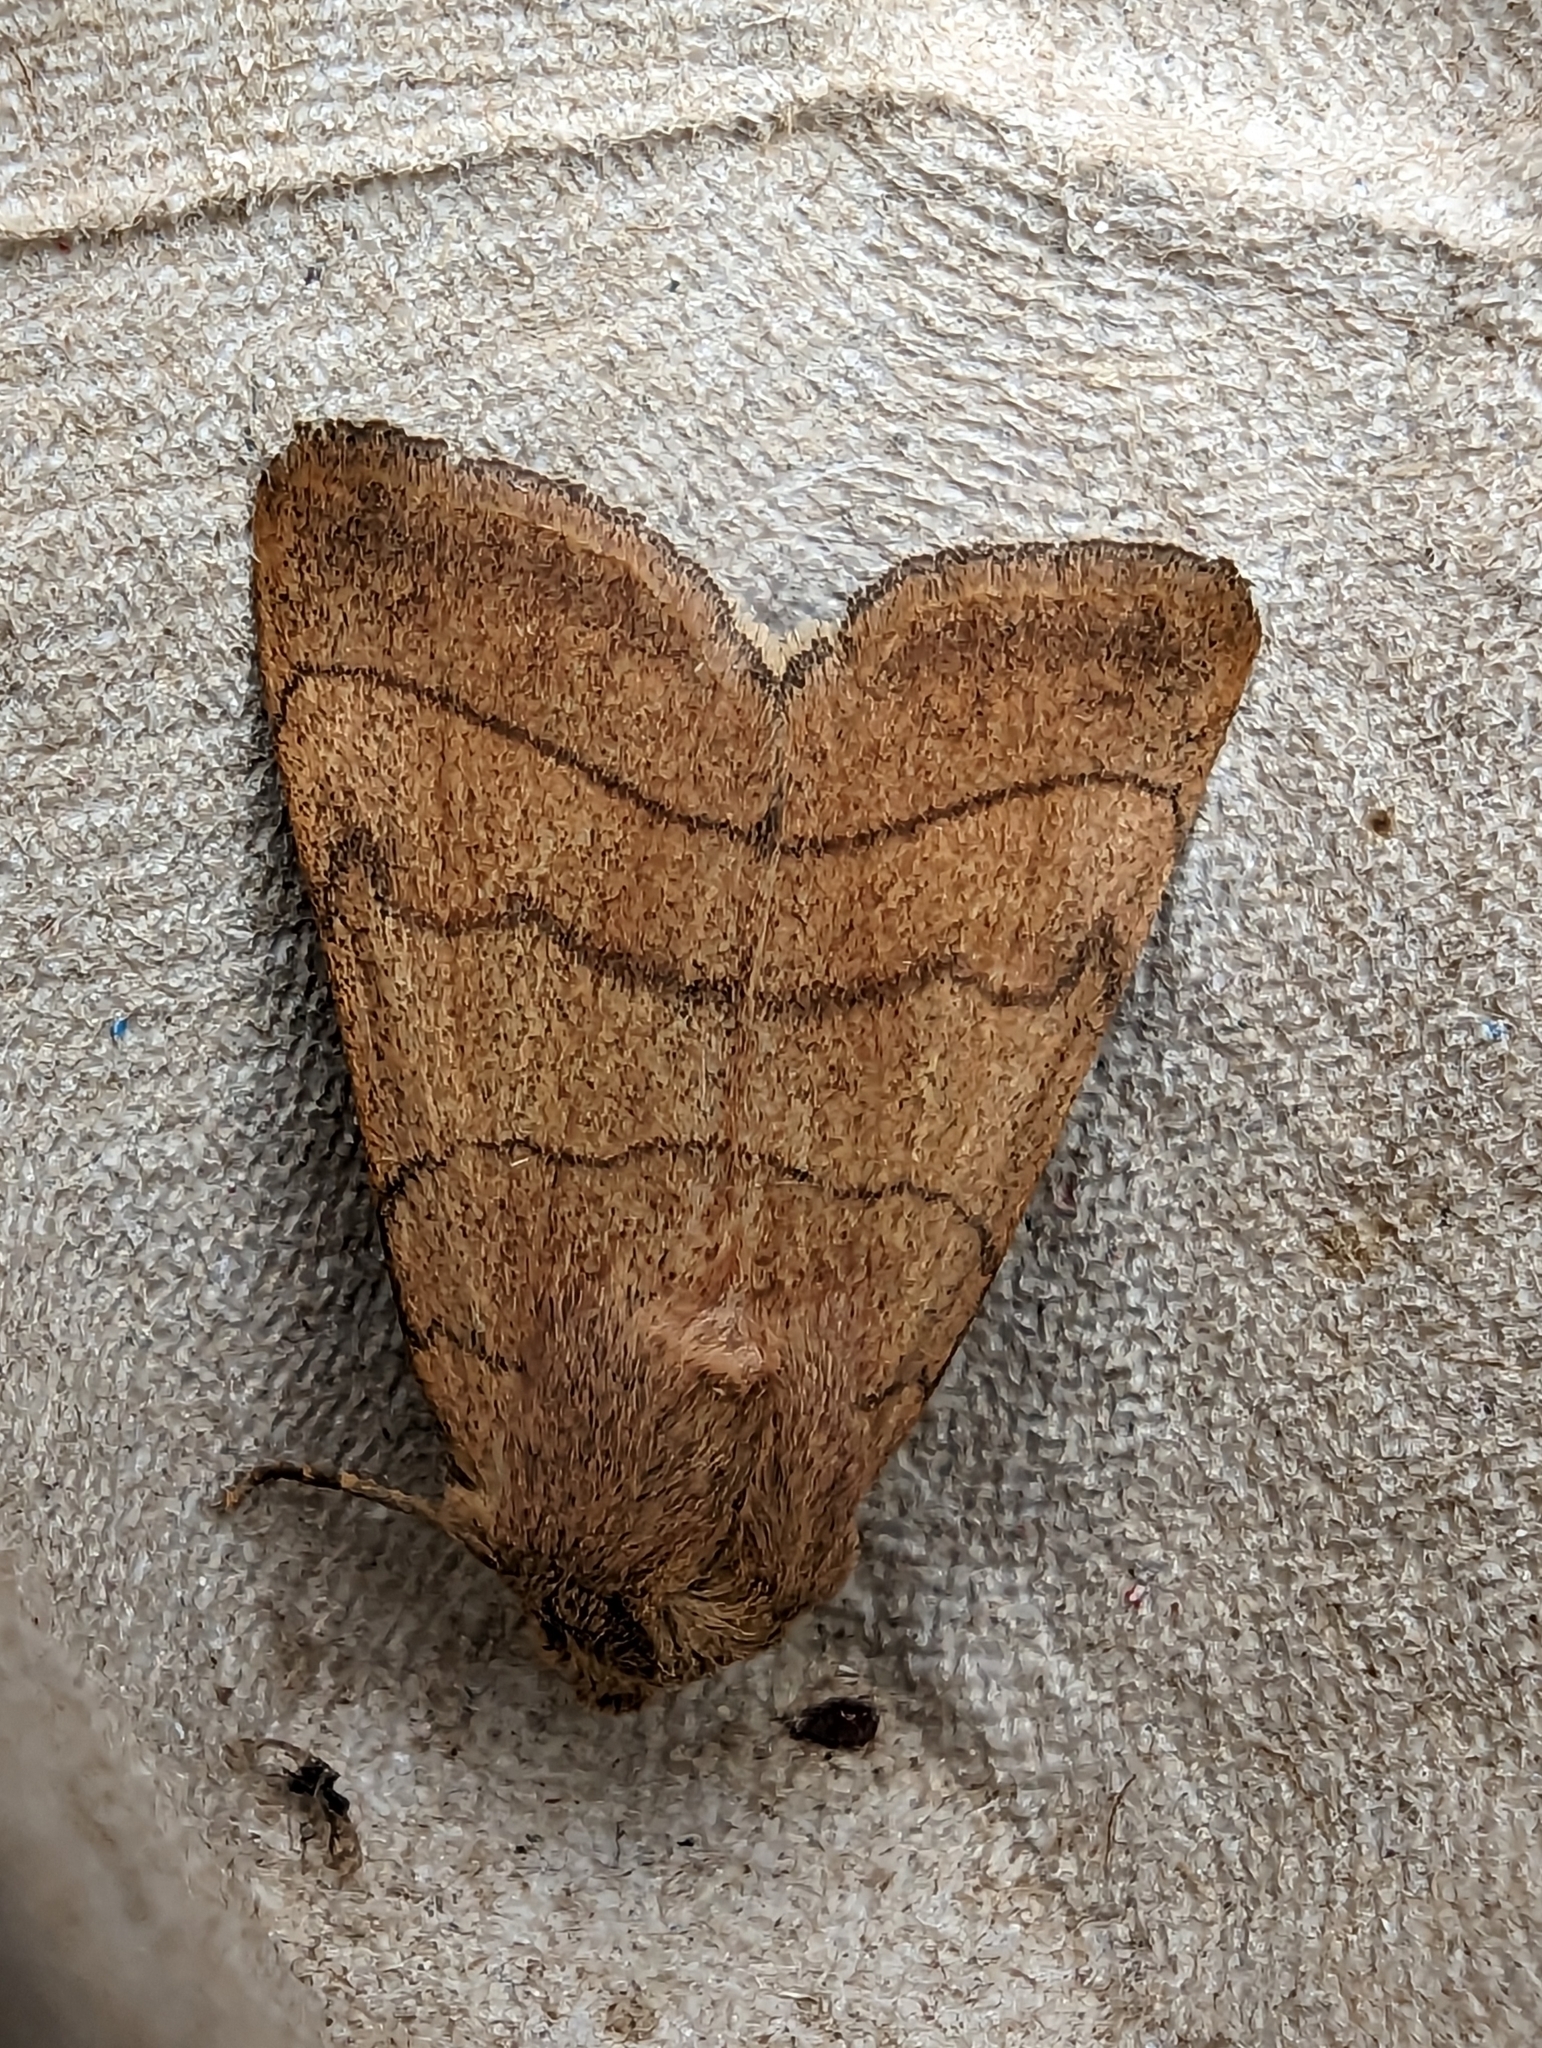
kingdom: Animalia
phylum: Arthropoda
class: Insecta
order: Lepidoptera
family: Noctuidae
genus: Charanyca
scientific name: Charanyca trigrammica
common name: Treble lines
